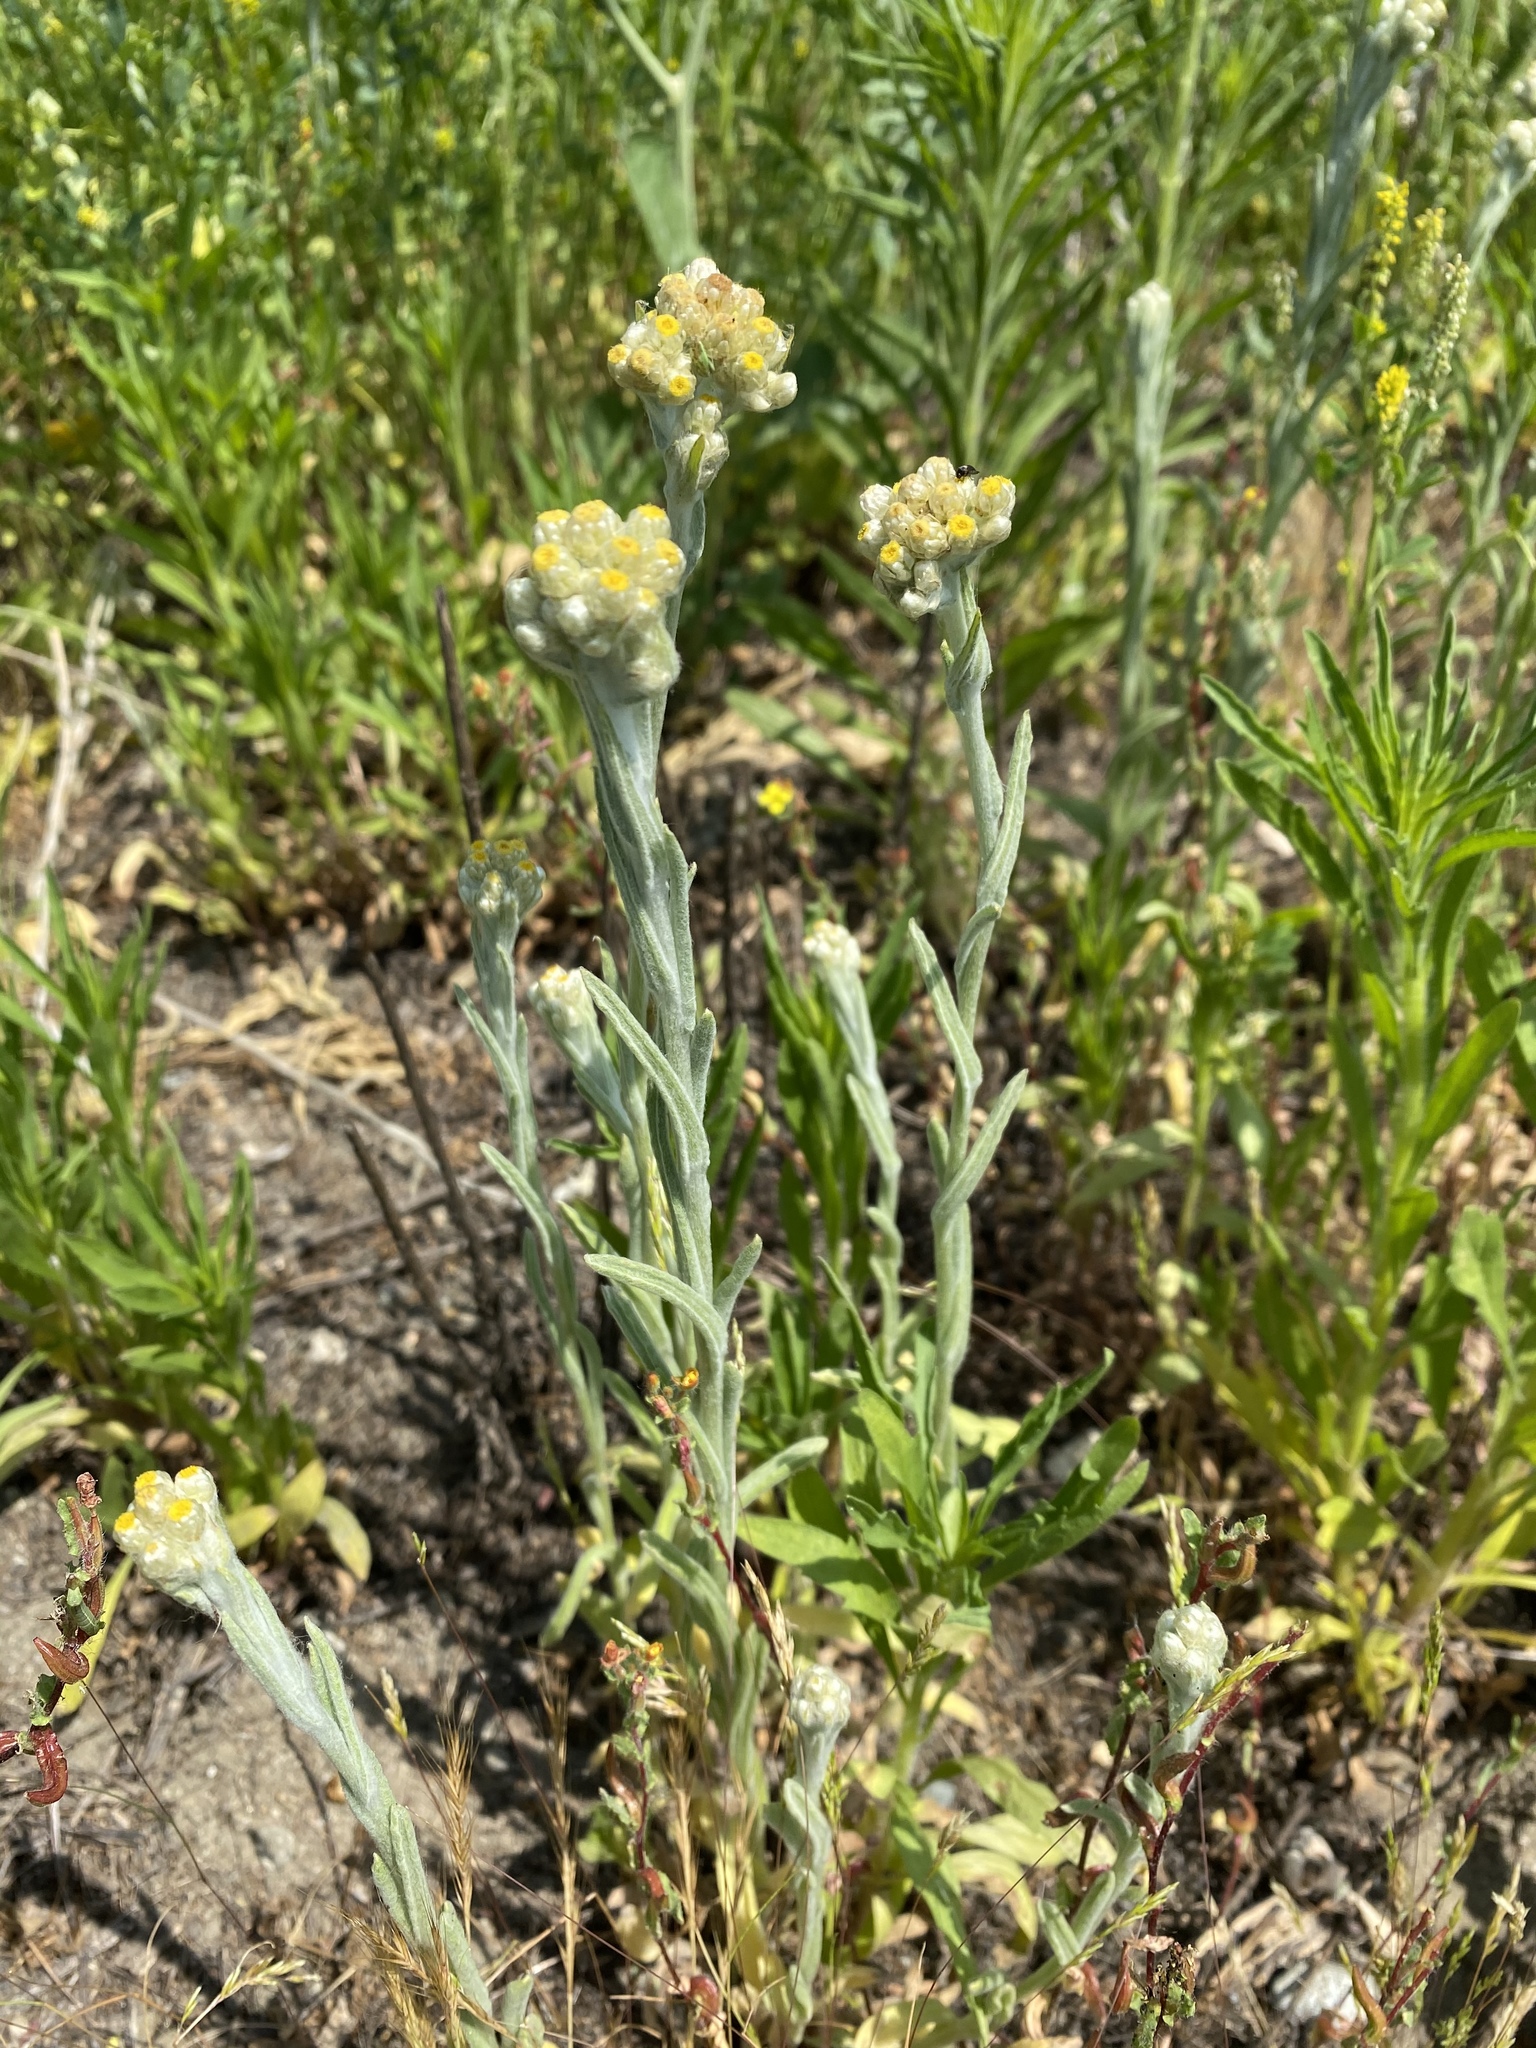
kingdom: Plantae
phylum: Tracheophyta
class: Magnoliopsida
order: Asterales
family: Asteraceae
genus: Pseudognaphalium
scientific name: Pseudognaphalium stramineum
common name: Cotton-batting-plant
